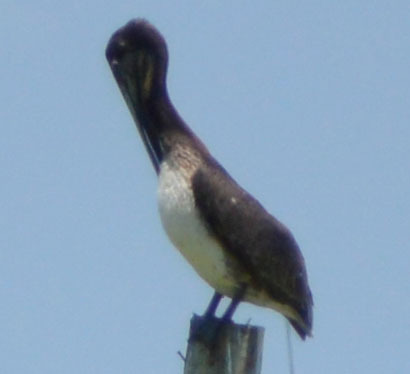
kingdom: Animalia
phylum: Chordata
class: Aves
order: Pelecaniformes
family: Pelecanidae
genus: Pelecanus
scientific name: Pelecanus occidentalis
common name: Brown pelican
